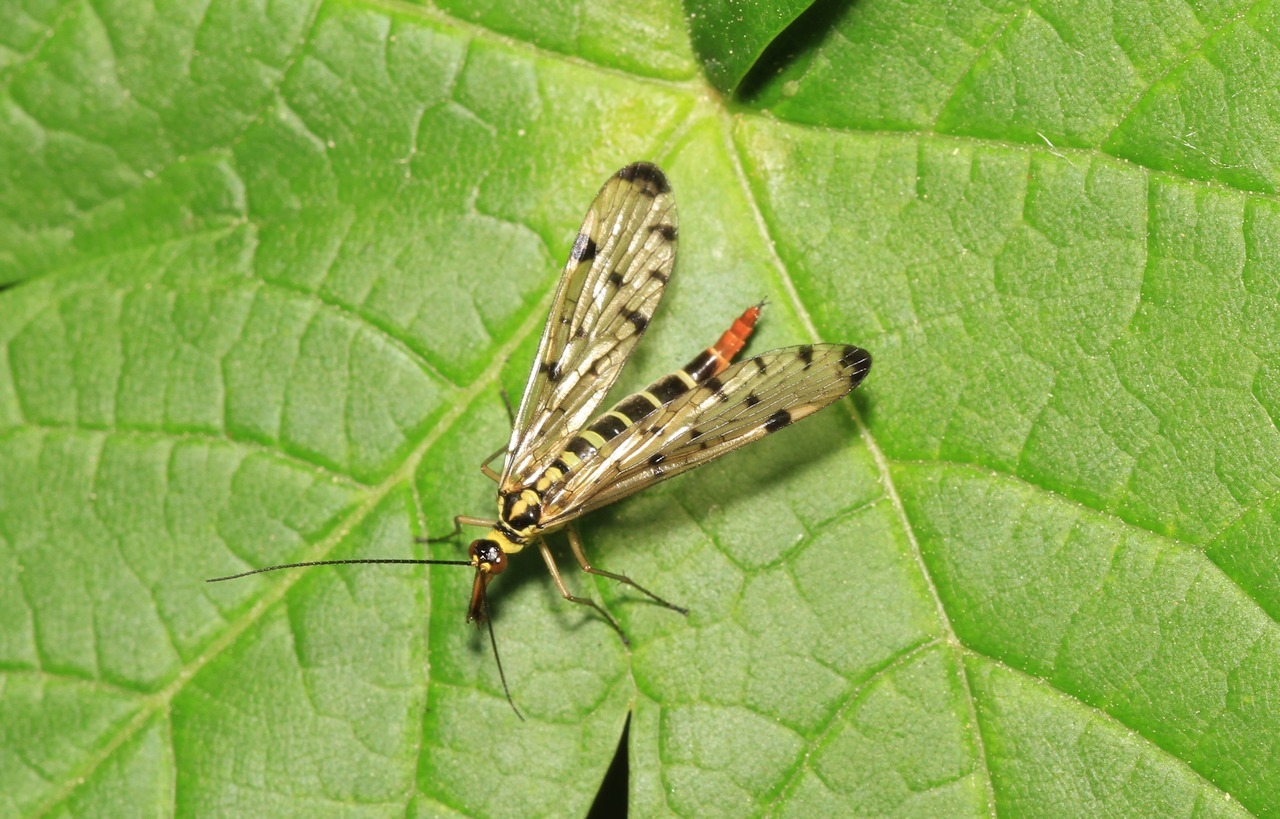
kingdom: Animalia
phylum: Arthropoda
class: Insecta
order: Mecoptera
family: Panorpidae
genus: Panorpa
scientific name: Panorpa germanica
